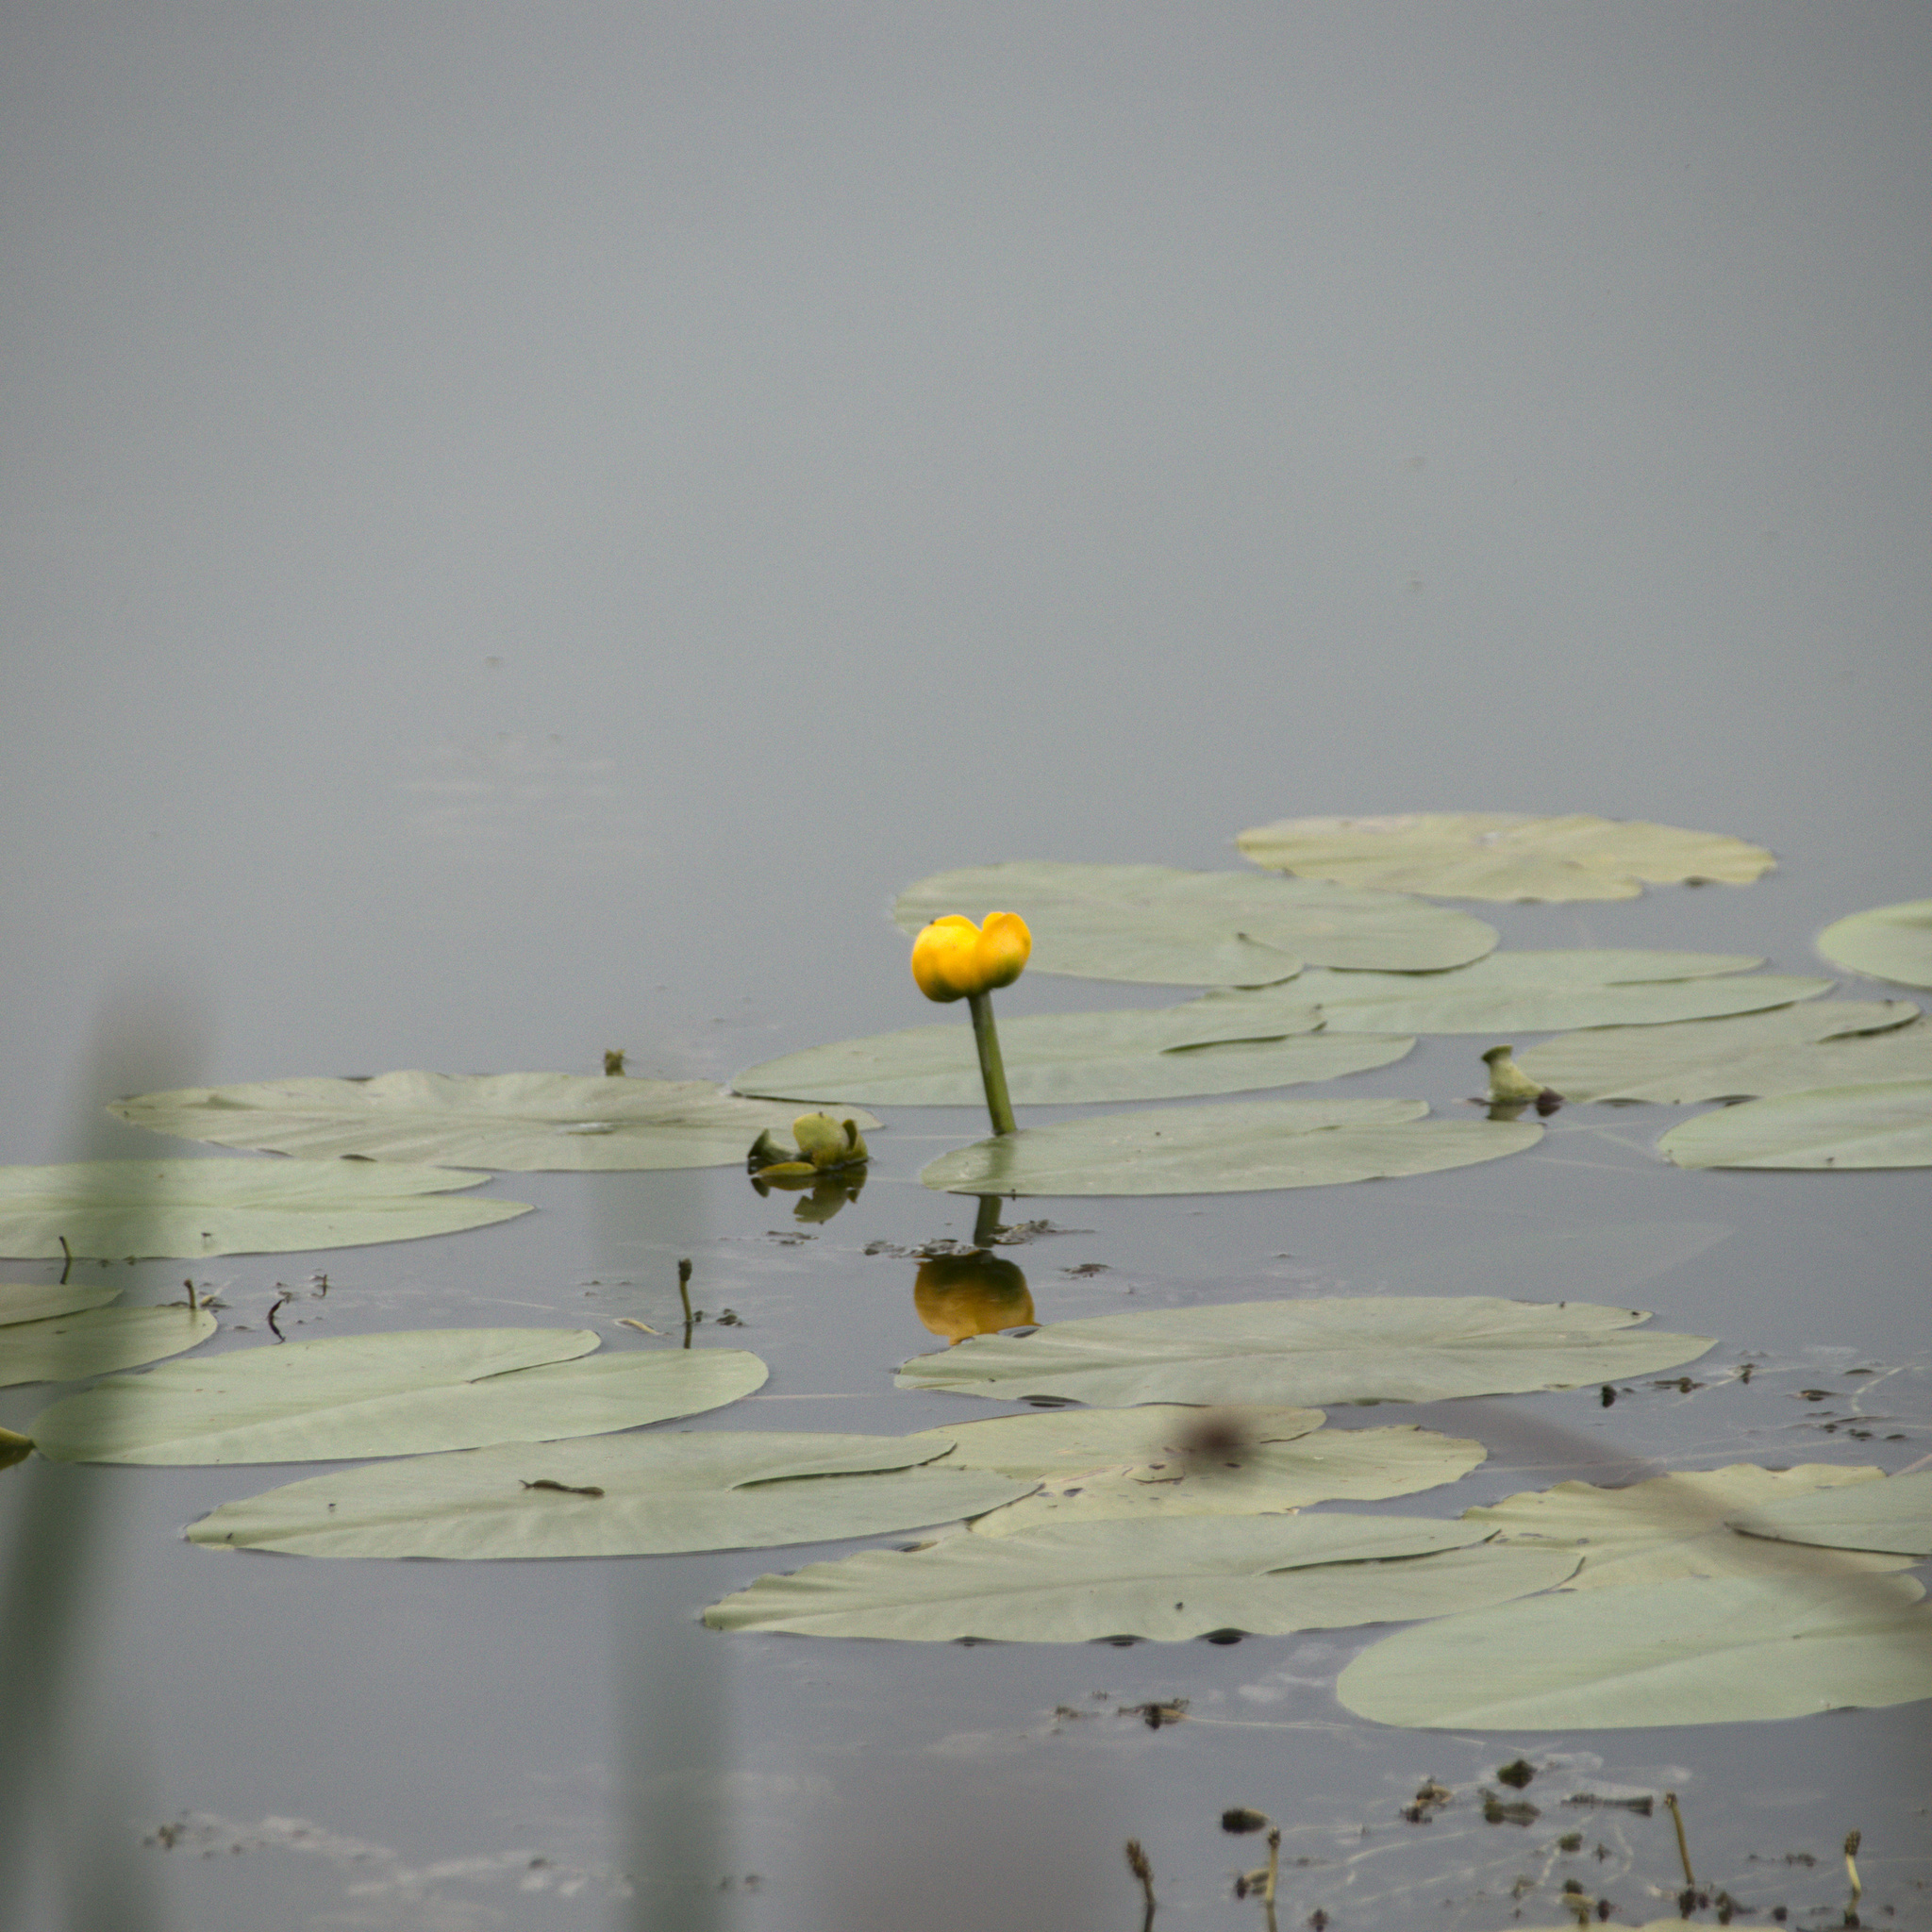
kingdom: Plantae
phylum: Tracheophyta
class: Magnoliopsida
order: Nymphaeales
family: Nymphaeaceae
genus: Nuphar
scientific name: Nuphar lutea
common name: Yellow water-lily
